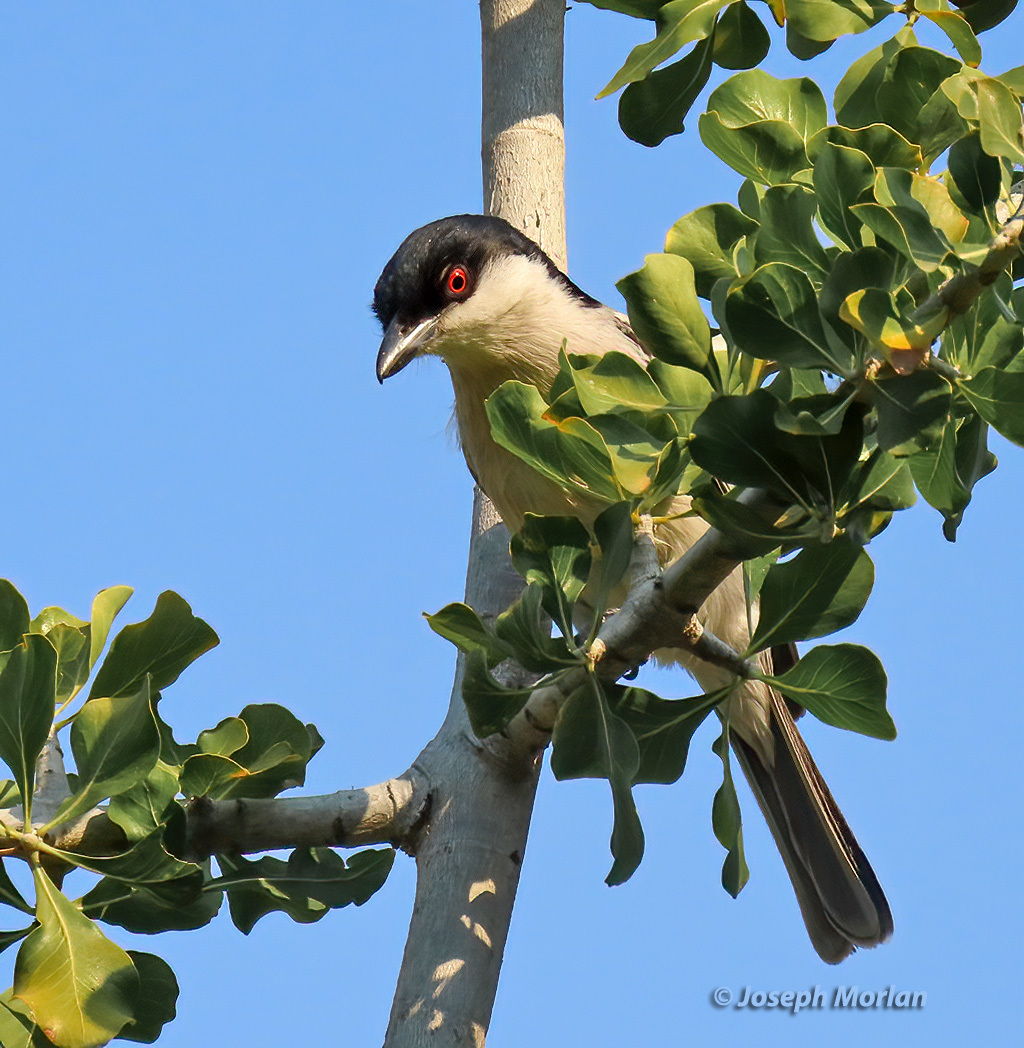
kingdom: Animalia
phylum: Chordata
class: Aves
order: Passeriformes
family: Malaconotidae
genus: Dryoscopus
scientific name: Dryoscopus cubla
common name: Black-backed puffback
